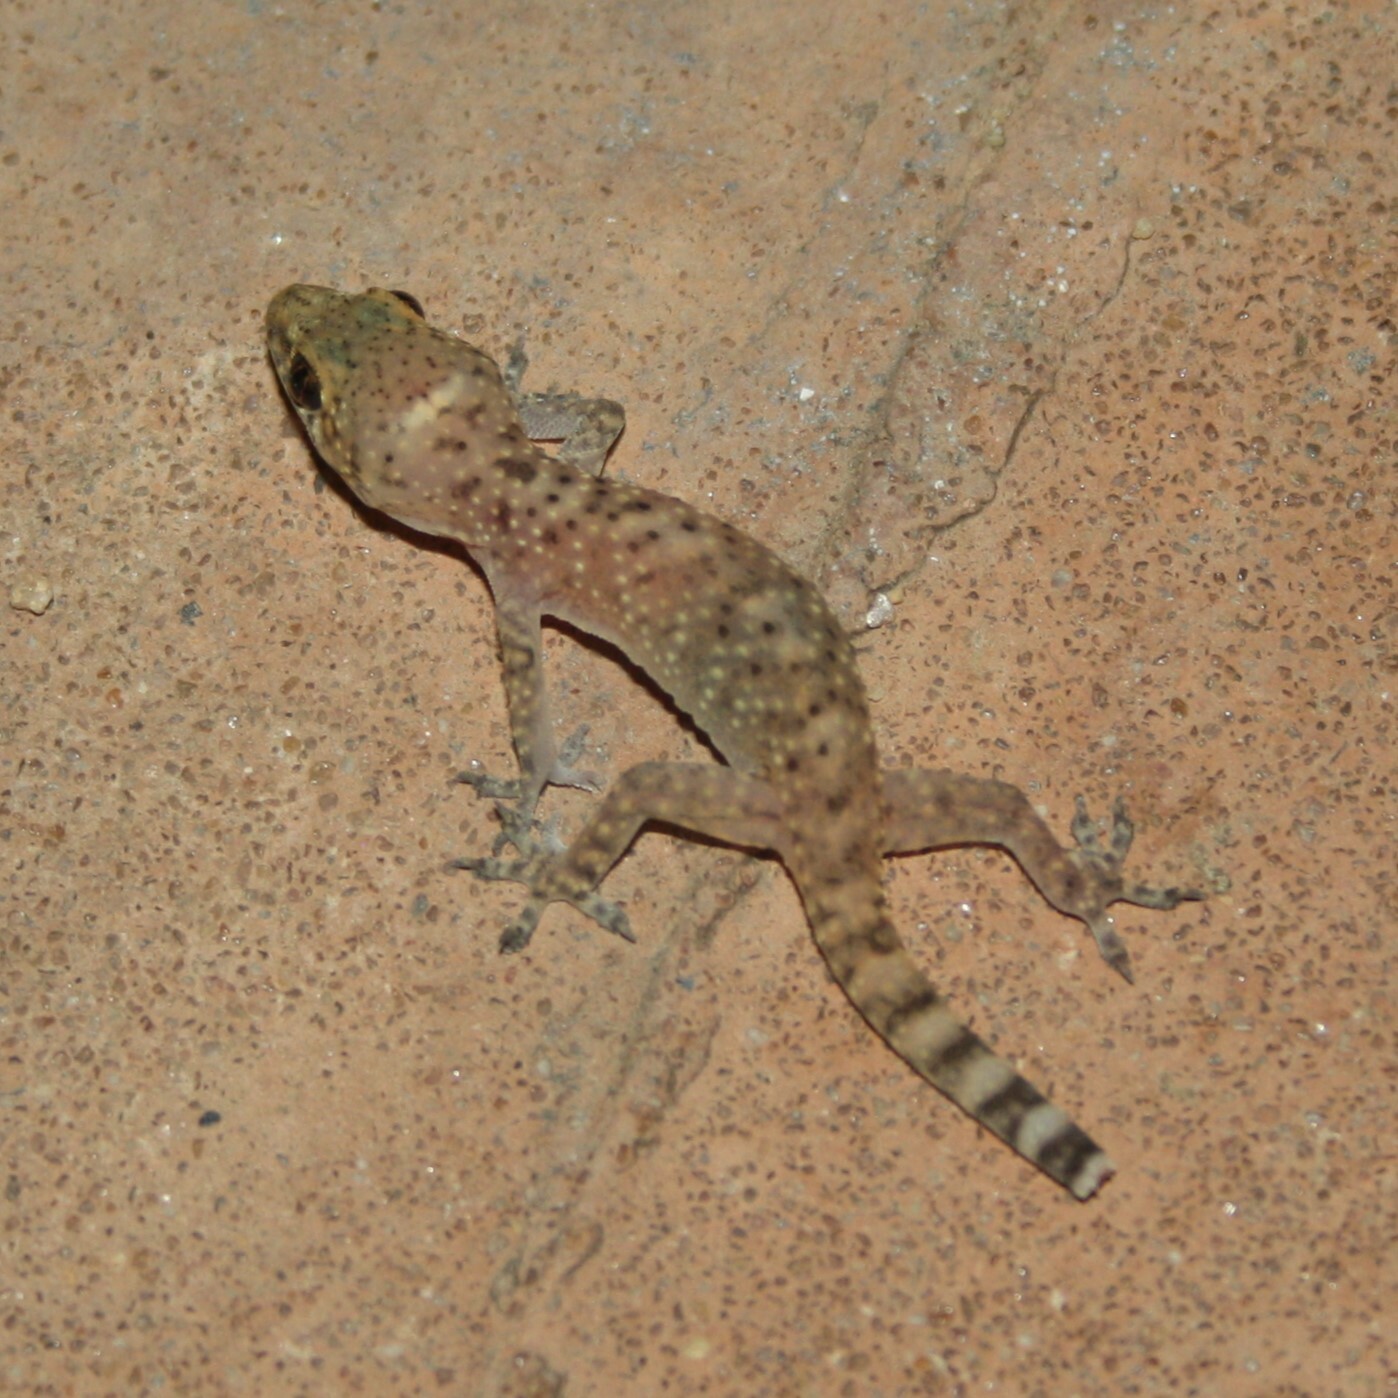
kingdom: Animalia
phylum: Chordata
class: Squamata
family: Gekkonidae
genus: Hemidactylus
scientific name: Hemidactylus turcicus
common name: Turkish gecko
